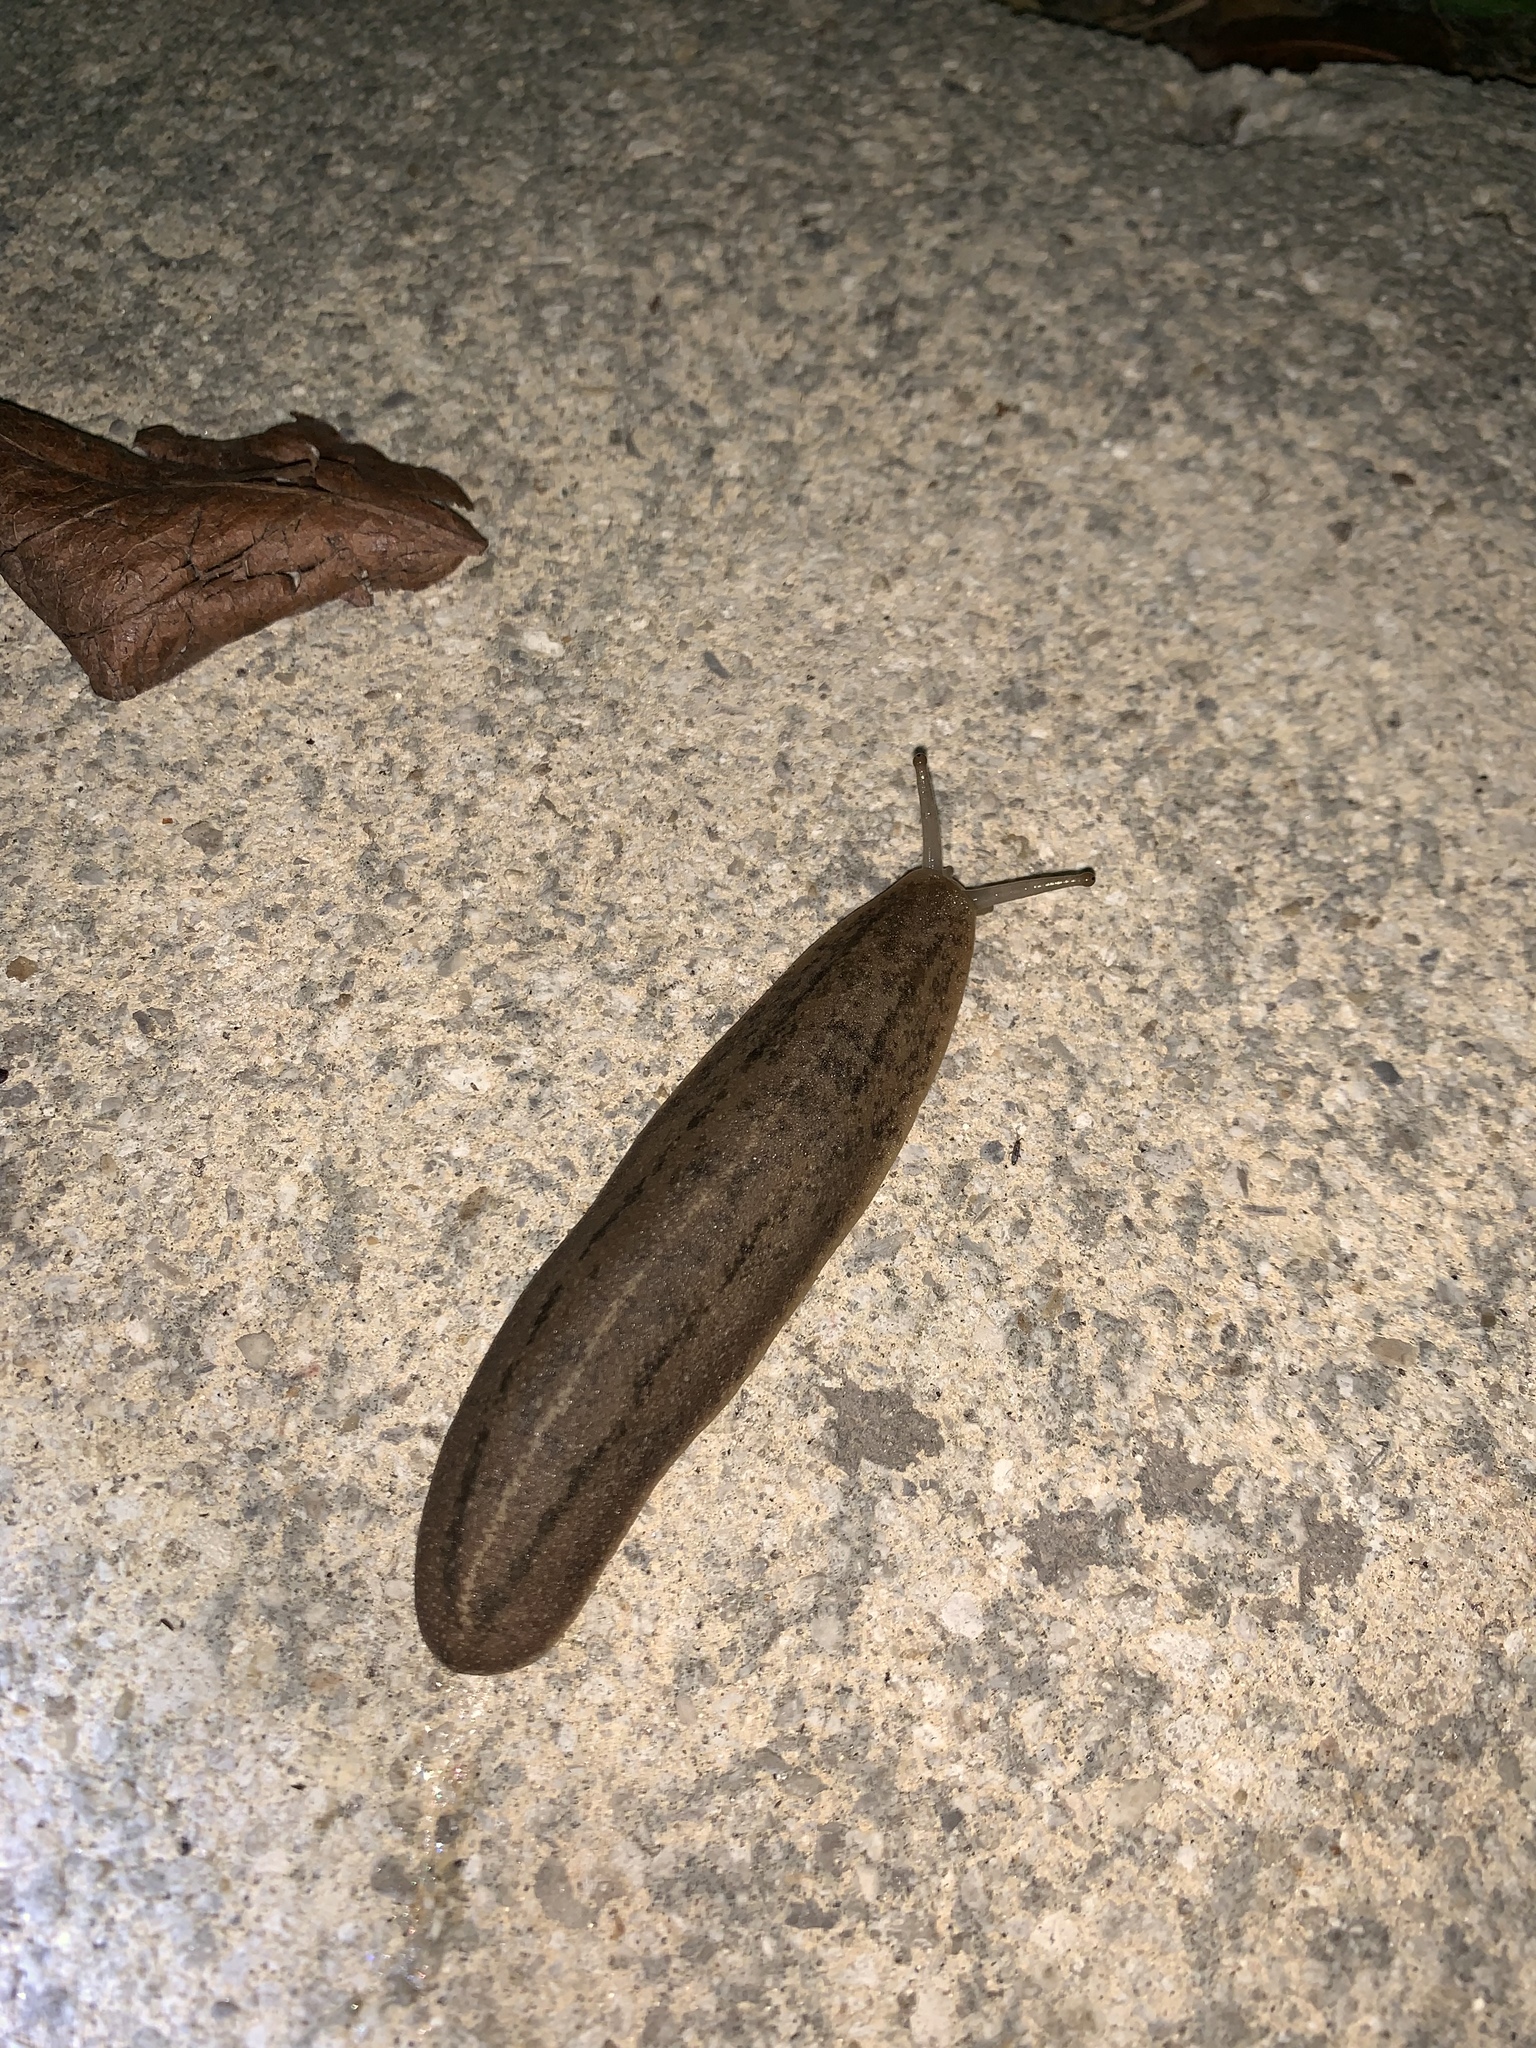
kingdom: Animalia
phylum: Mollusca
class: Gastropoda
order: Systellommatophora
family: Veronicellidae
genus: Leidyula
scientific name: Leidyula floridana
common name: Florida leatherleaf
